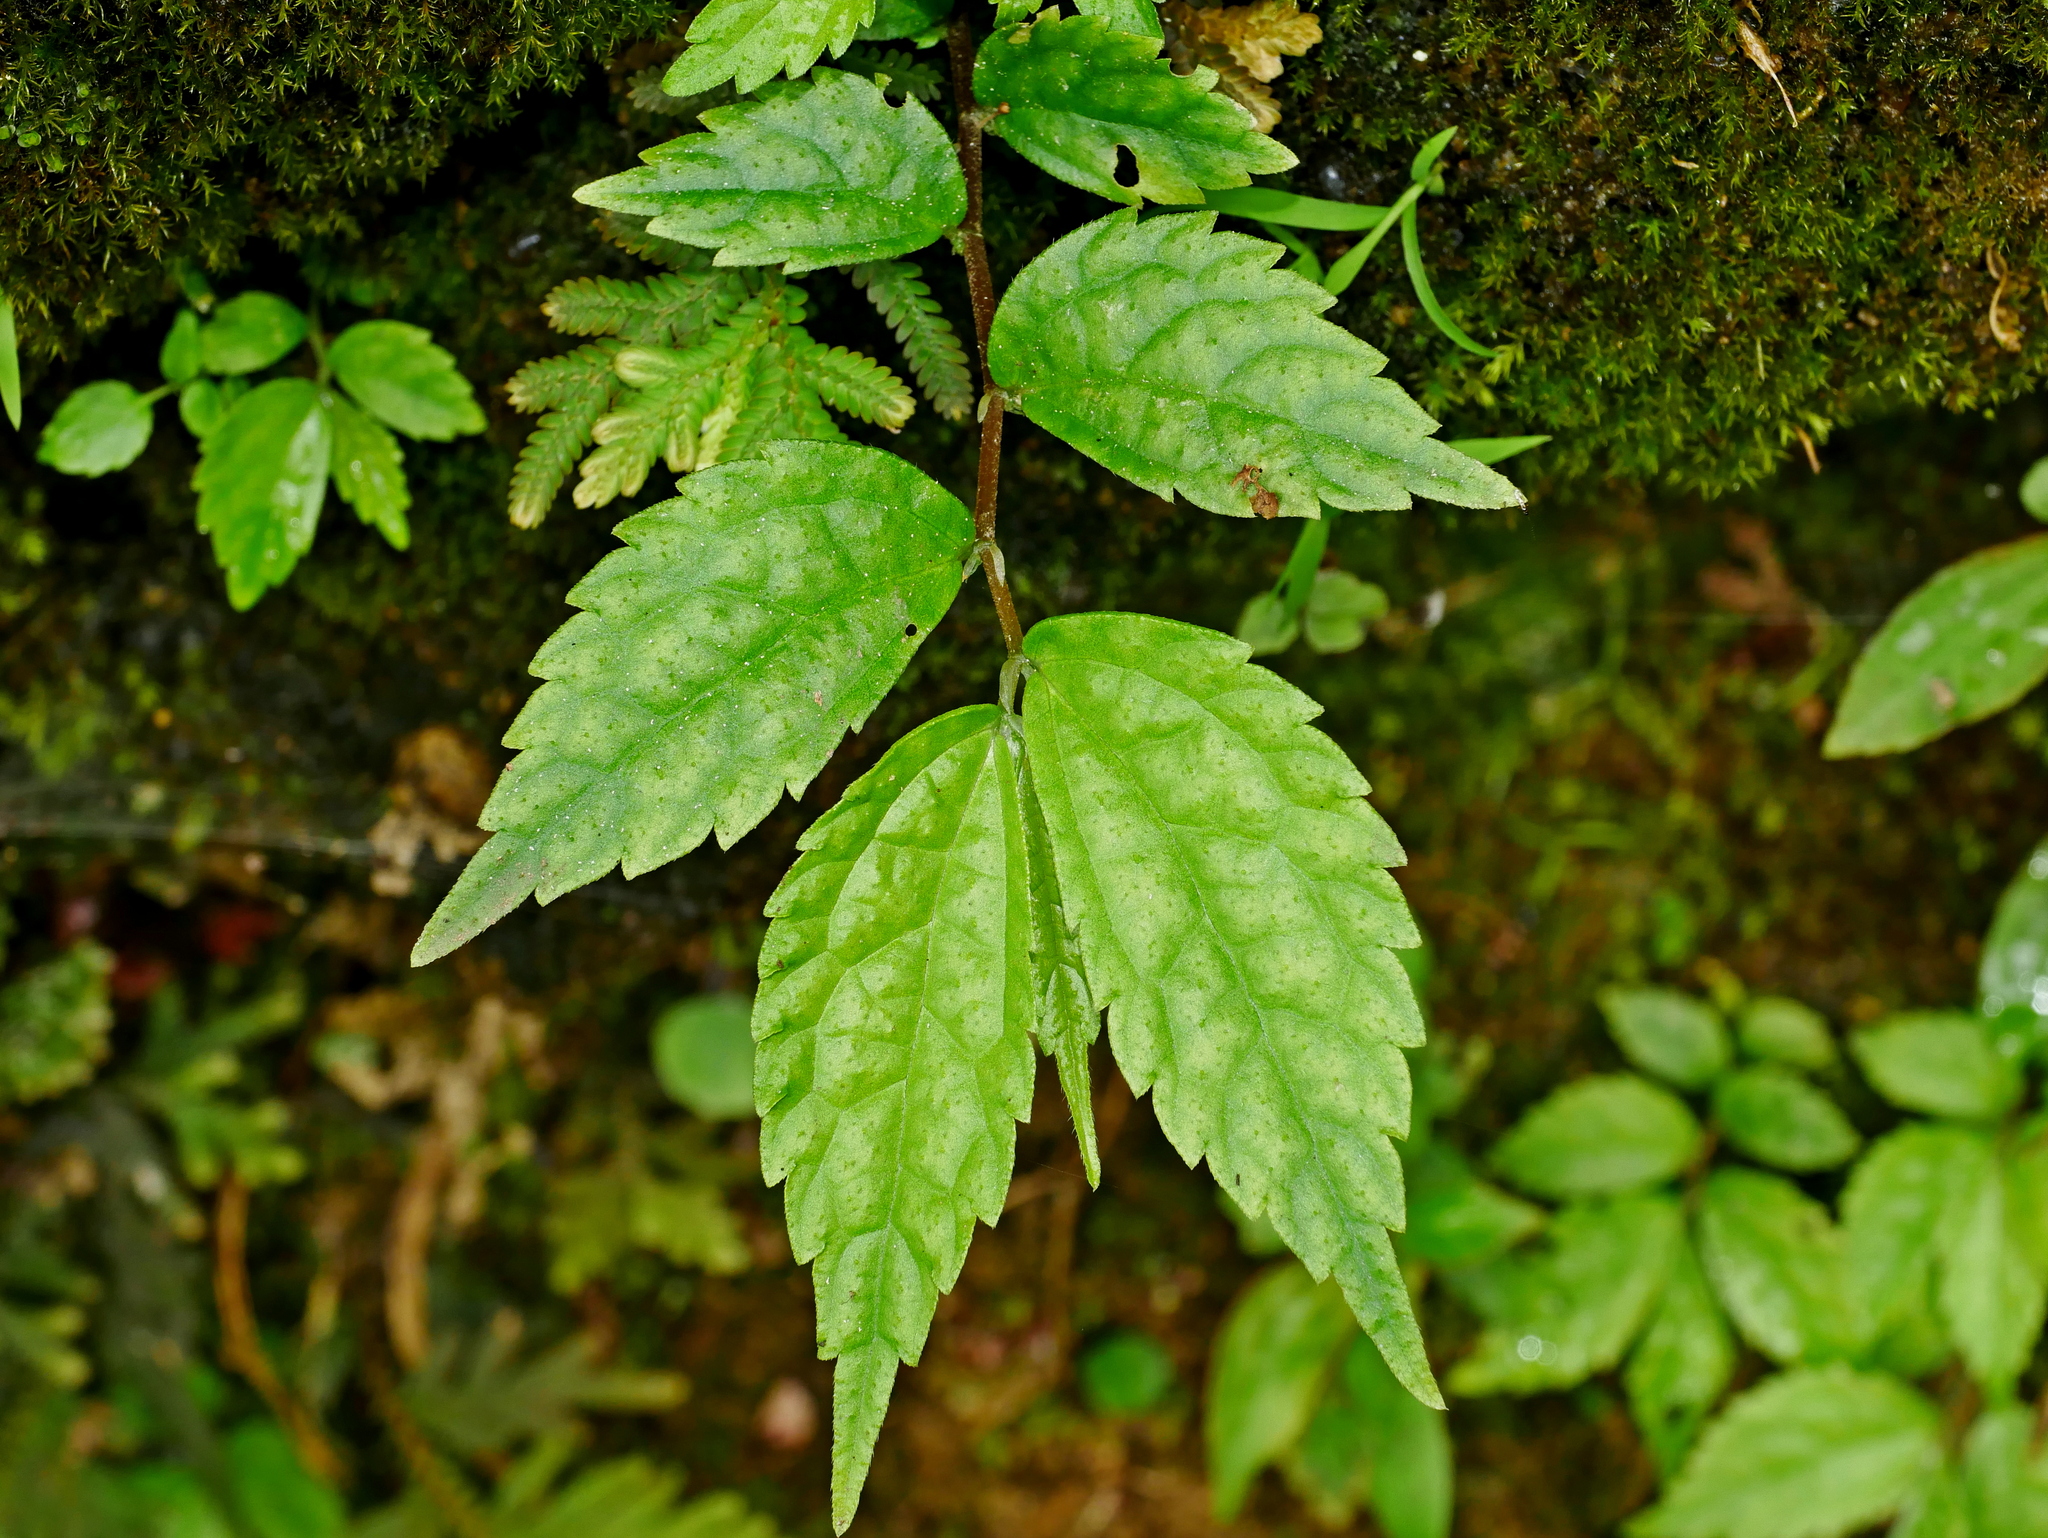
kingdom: Plantae
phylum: Tracheophyta
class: Magnoliopsida
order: Rosales
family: Urticaceae
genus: Elatostema
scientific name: Elatostema cyrtandrifolium
